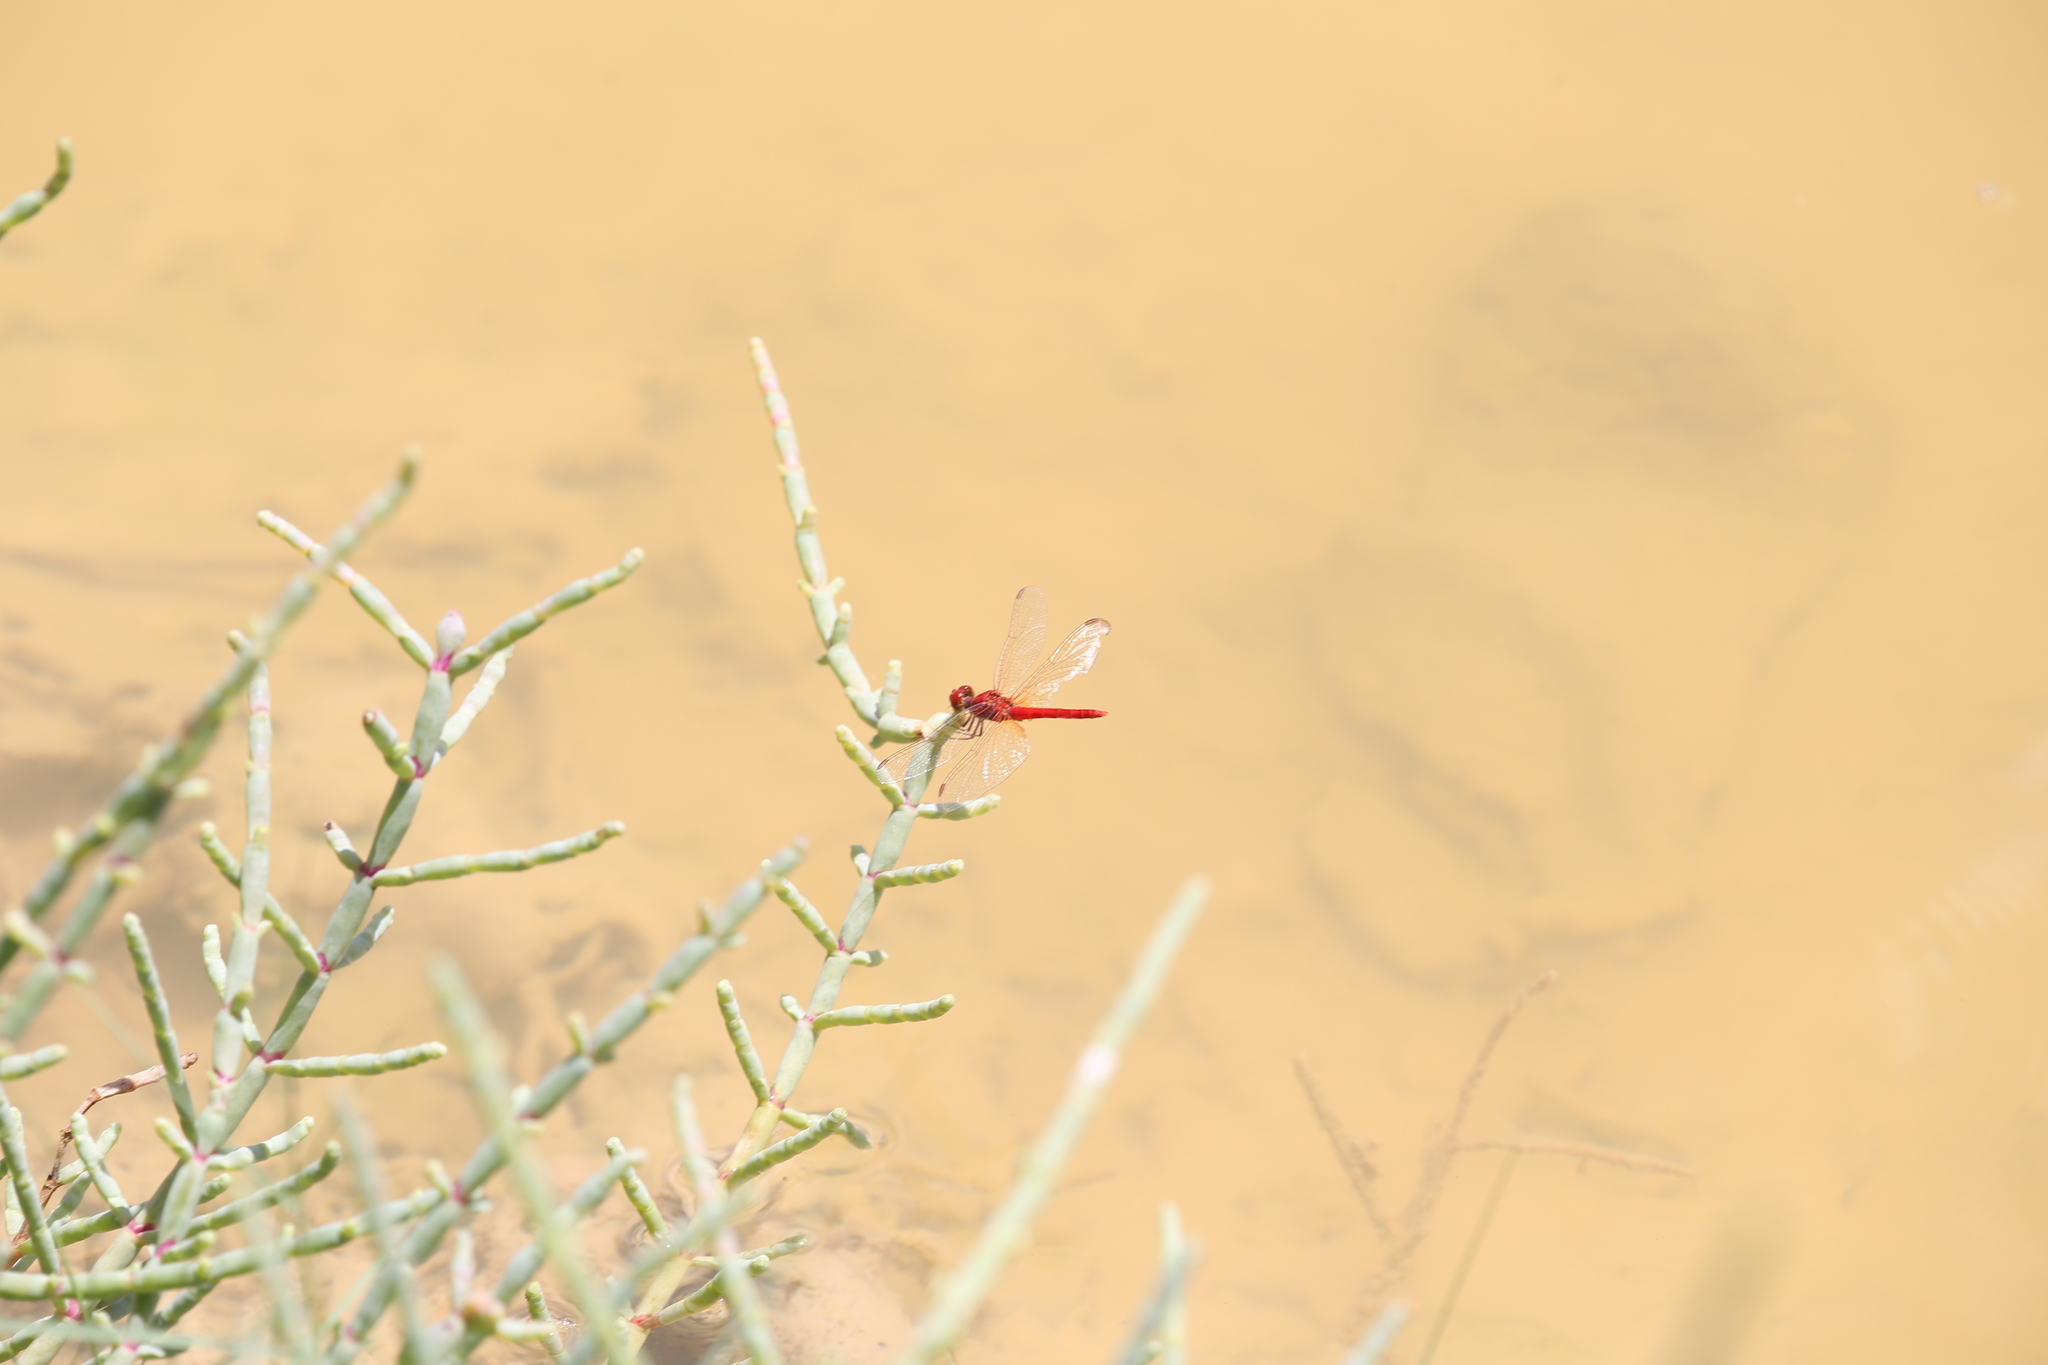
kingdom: Animalia
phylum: Arthropoda
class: Insecta
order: Odonata
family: Libellulidae
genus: Diplacodes
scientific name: Diplacodes haematodes
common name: Scarlet percher
